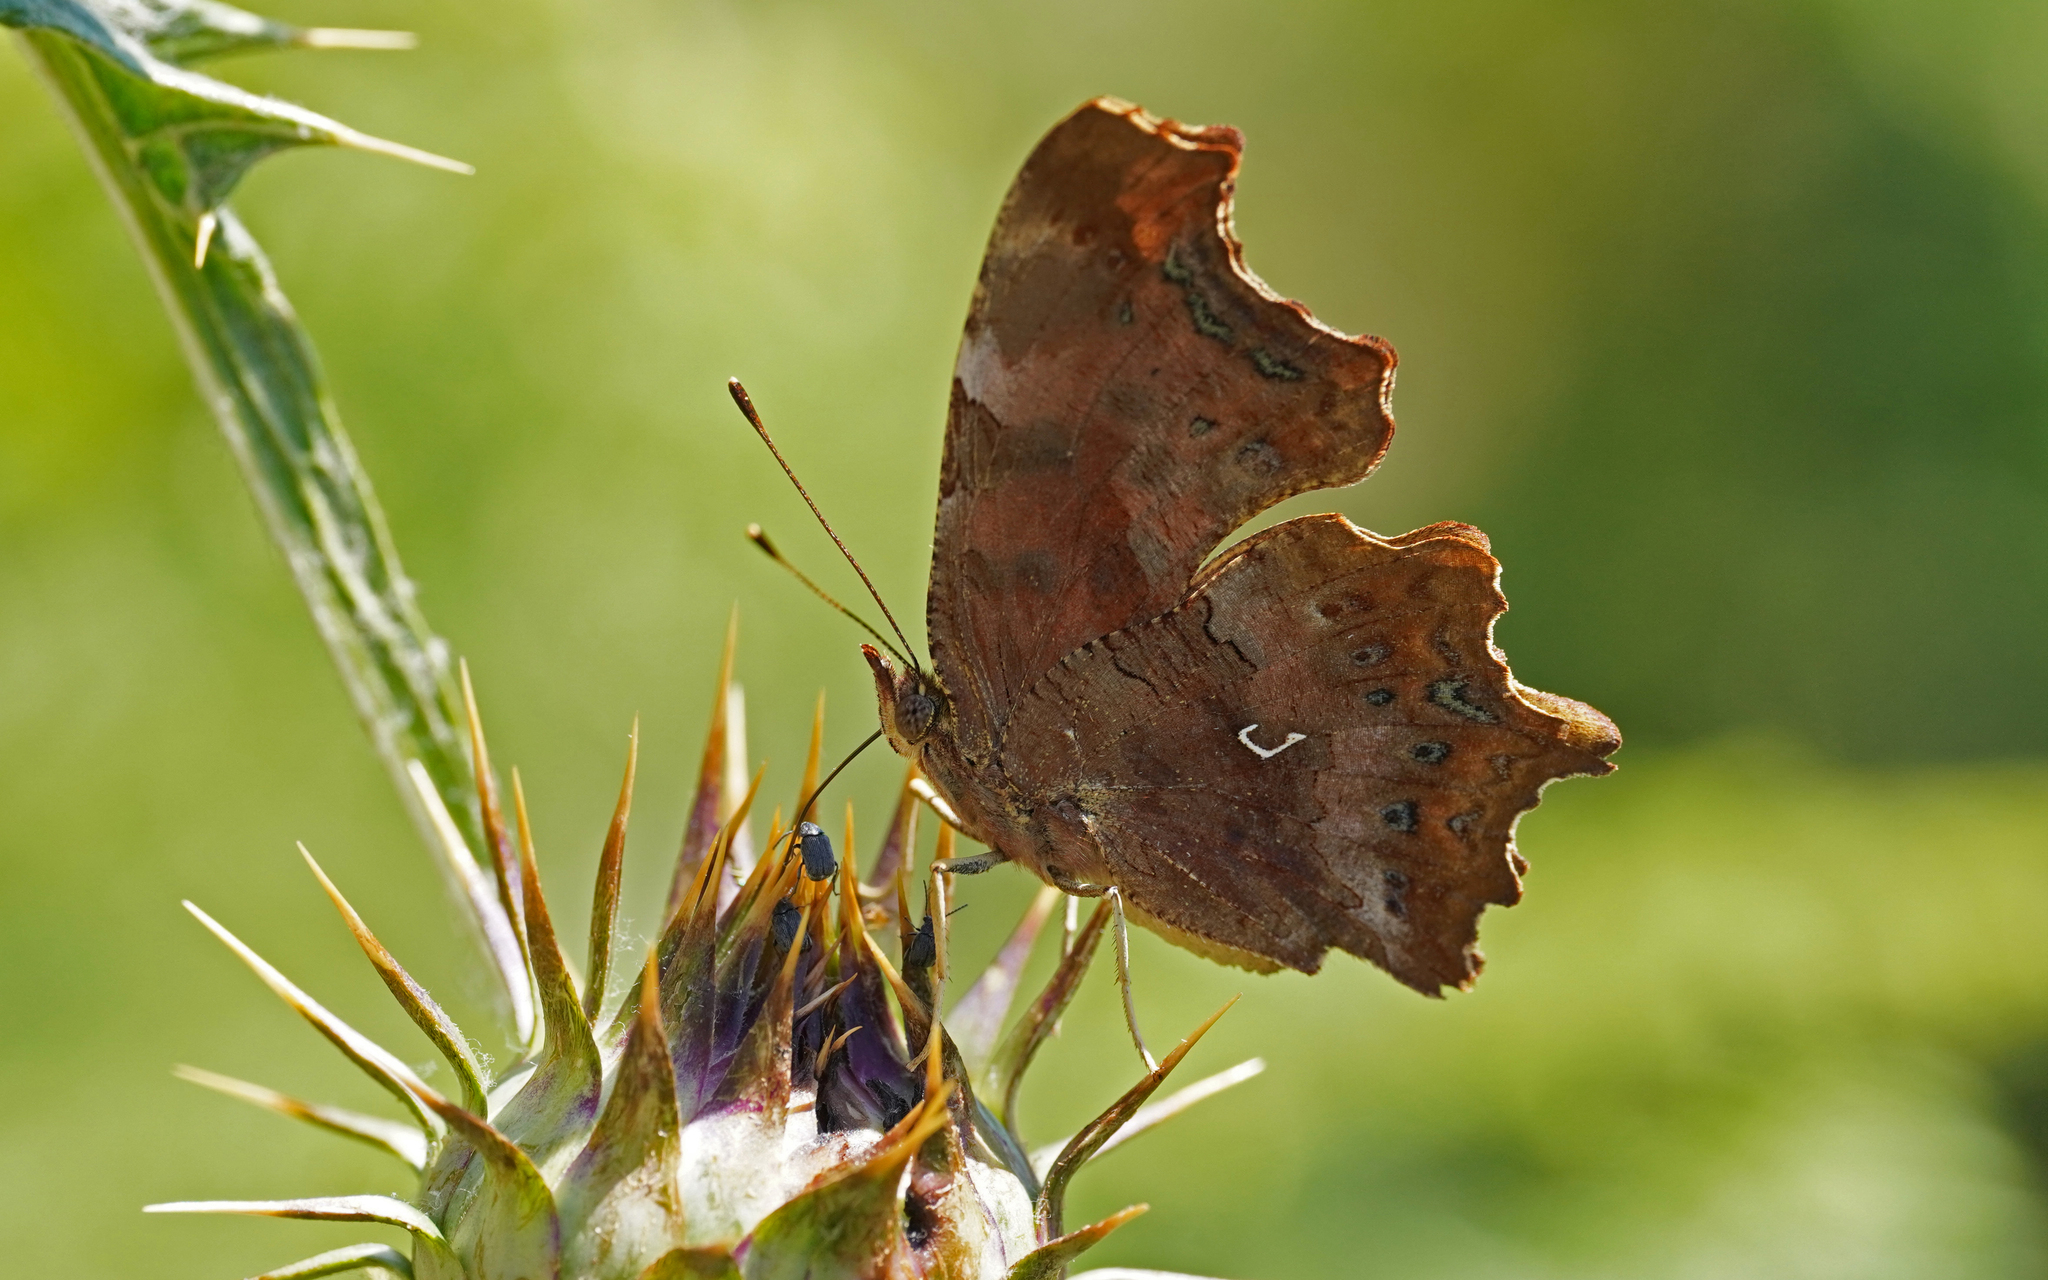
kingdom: Animalia
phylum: Arthropoda
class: Insecta
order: Lepidoptera
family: Nymphalidae
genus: Polygonia
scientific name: Polygonia c-album
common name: Comma
